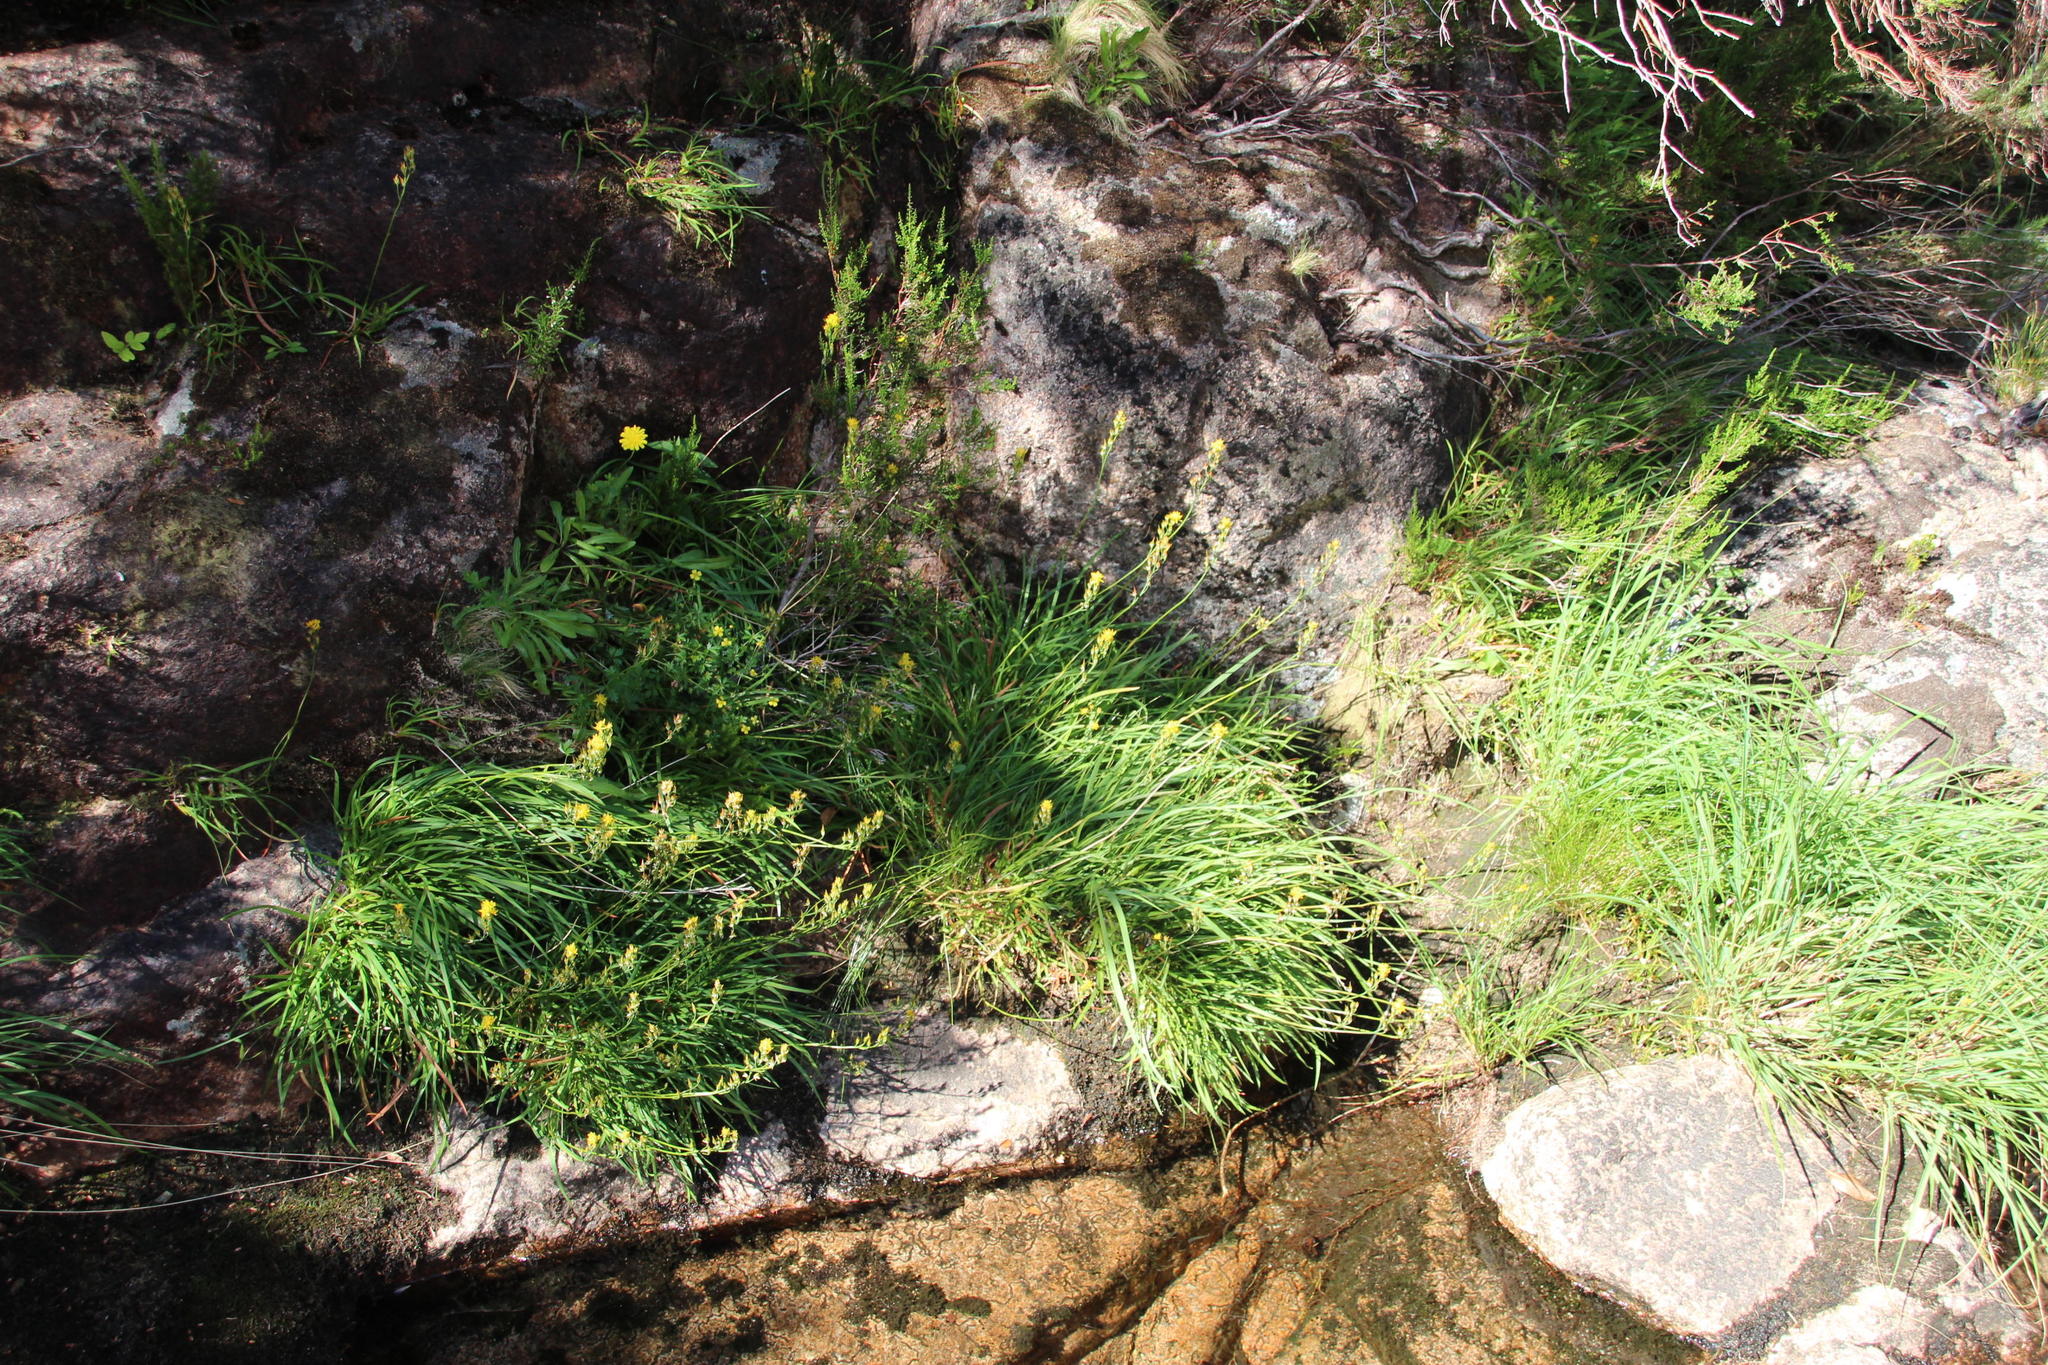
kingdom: Plantae
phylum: Tracheophyta
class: Liliopsida
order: Dioscoreales
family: Nartheciaceae
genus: Narthecium
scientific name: Narthecium ossifragum
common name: Bog asphodel
